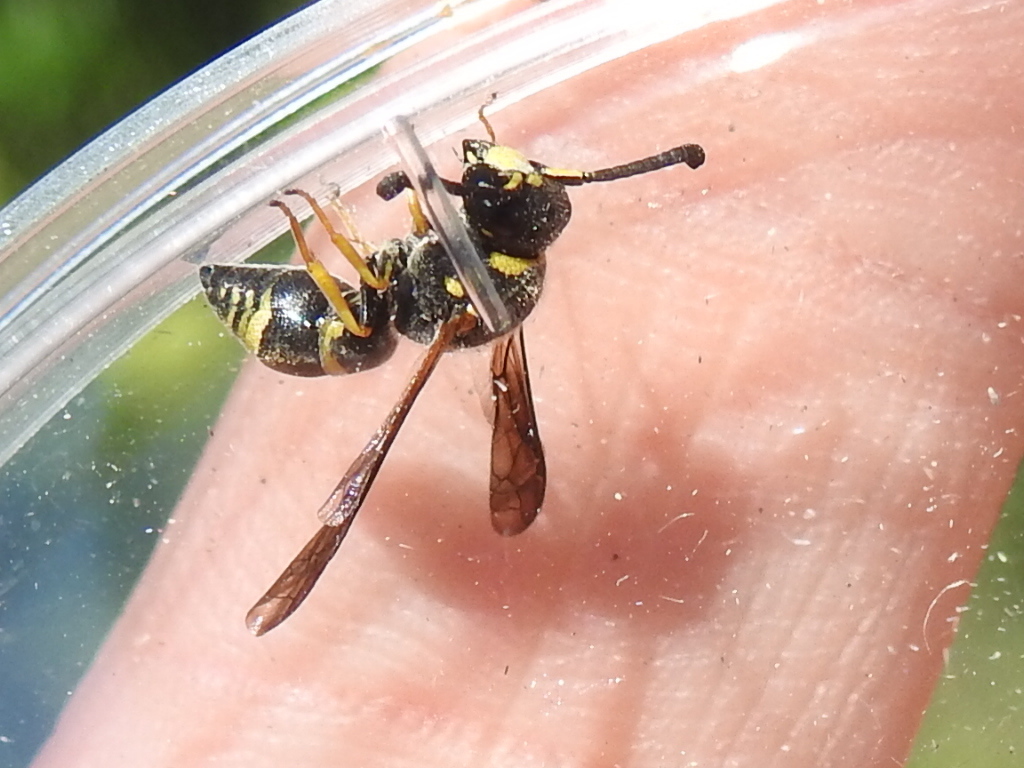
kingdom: Animalia
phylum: Arthropoda
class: Insecta
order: Hymenoptera
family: Eumenidae
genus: Euodynerus
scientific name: Euodynerus
